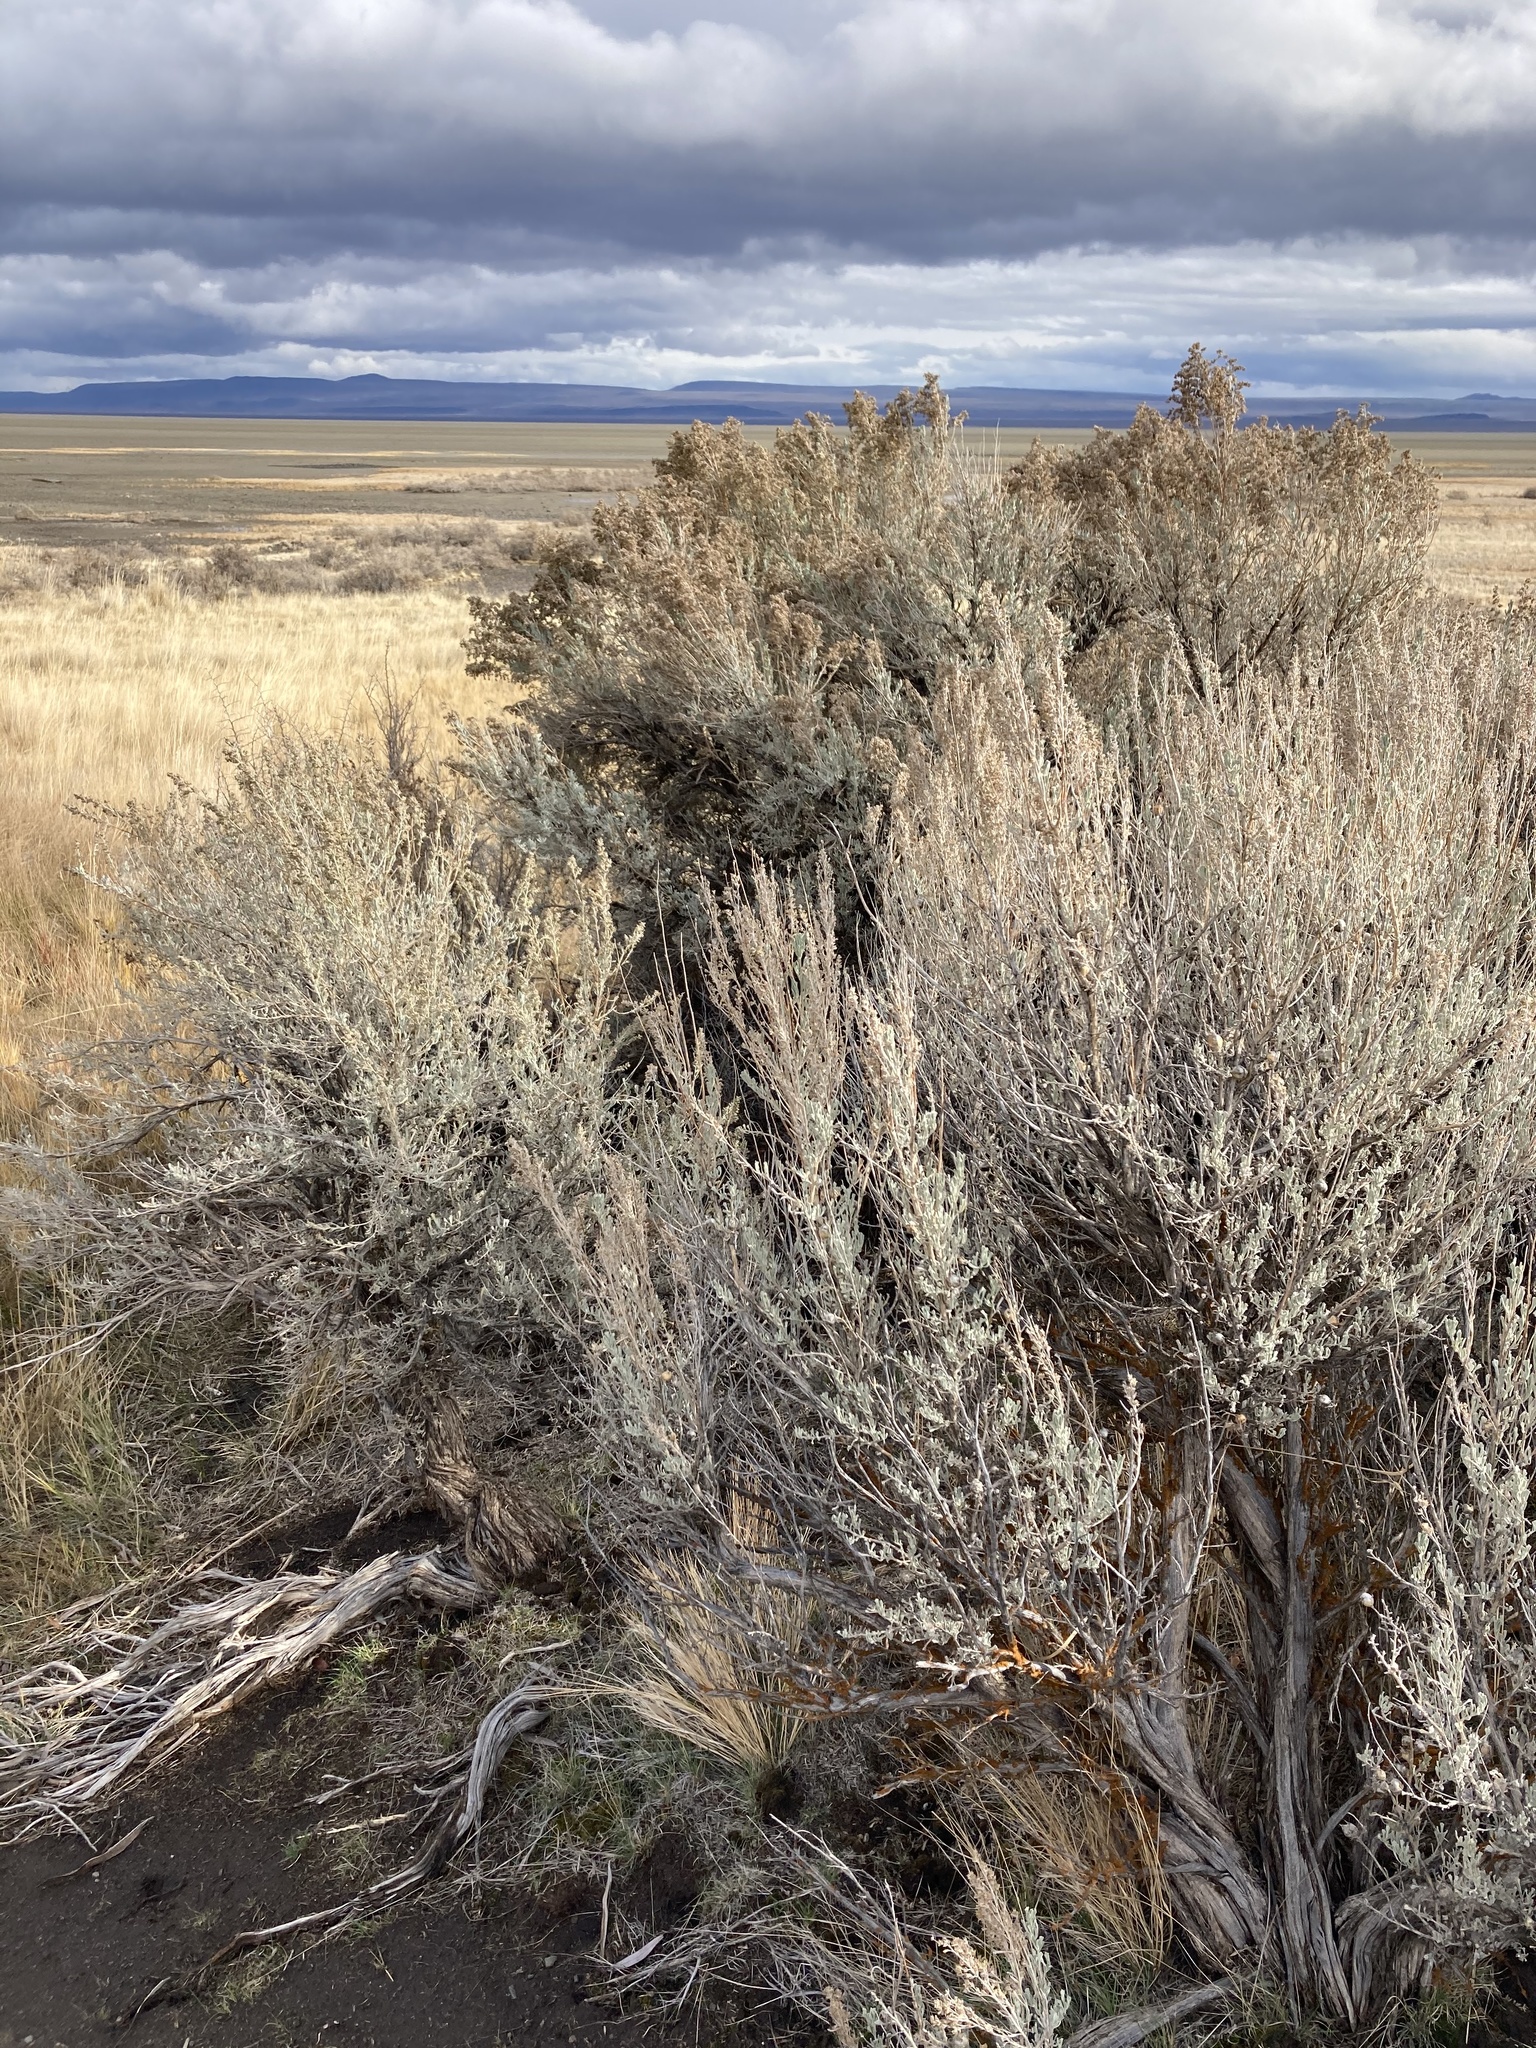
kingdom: Plantae
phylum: Tracheophyta
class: Magnoliopsida
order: Asterales
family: Asteraceae
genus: Artemisia
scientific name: Artemisia tridentata
